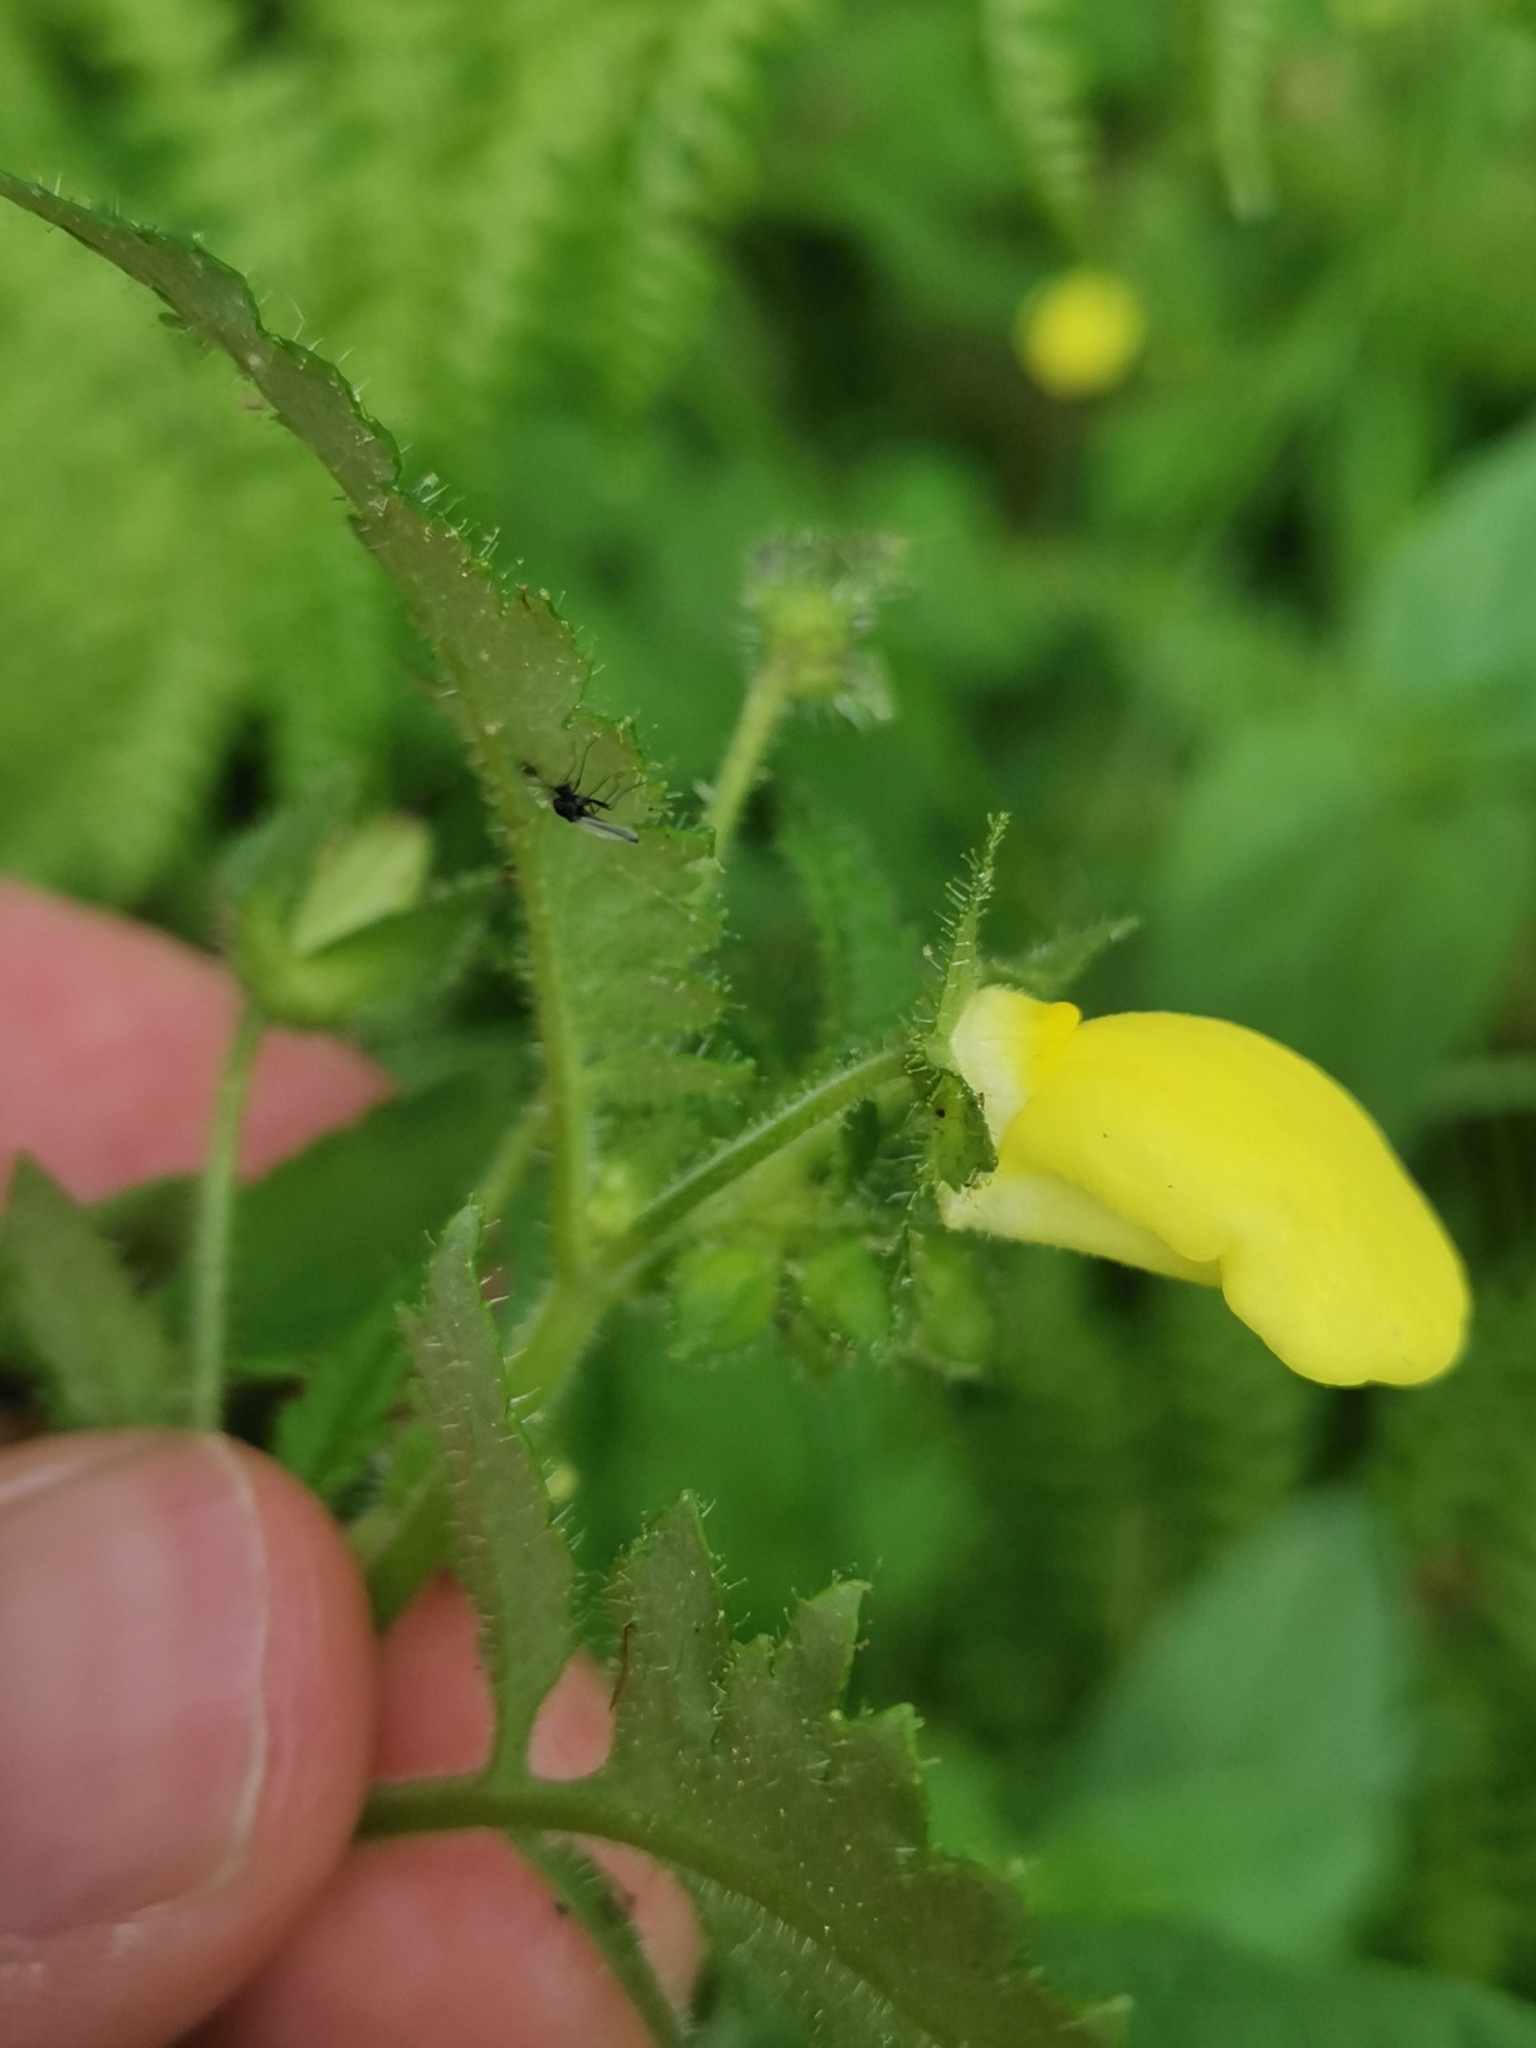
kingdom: Plantae
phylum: Tracheophyta
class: Magnoliopsida
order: Lamiales
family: Calceolariaceae
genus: Calceolaria
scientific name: Calceolaria tripartita
